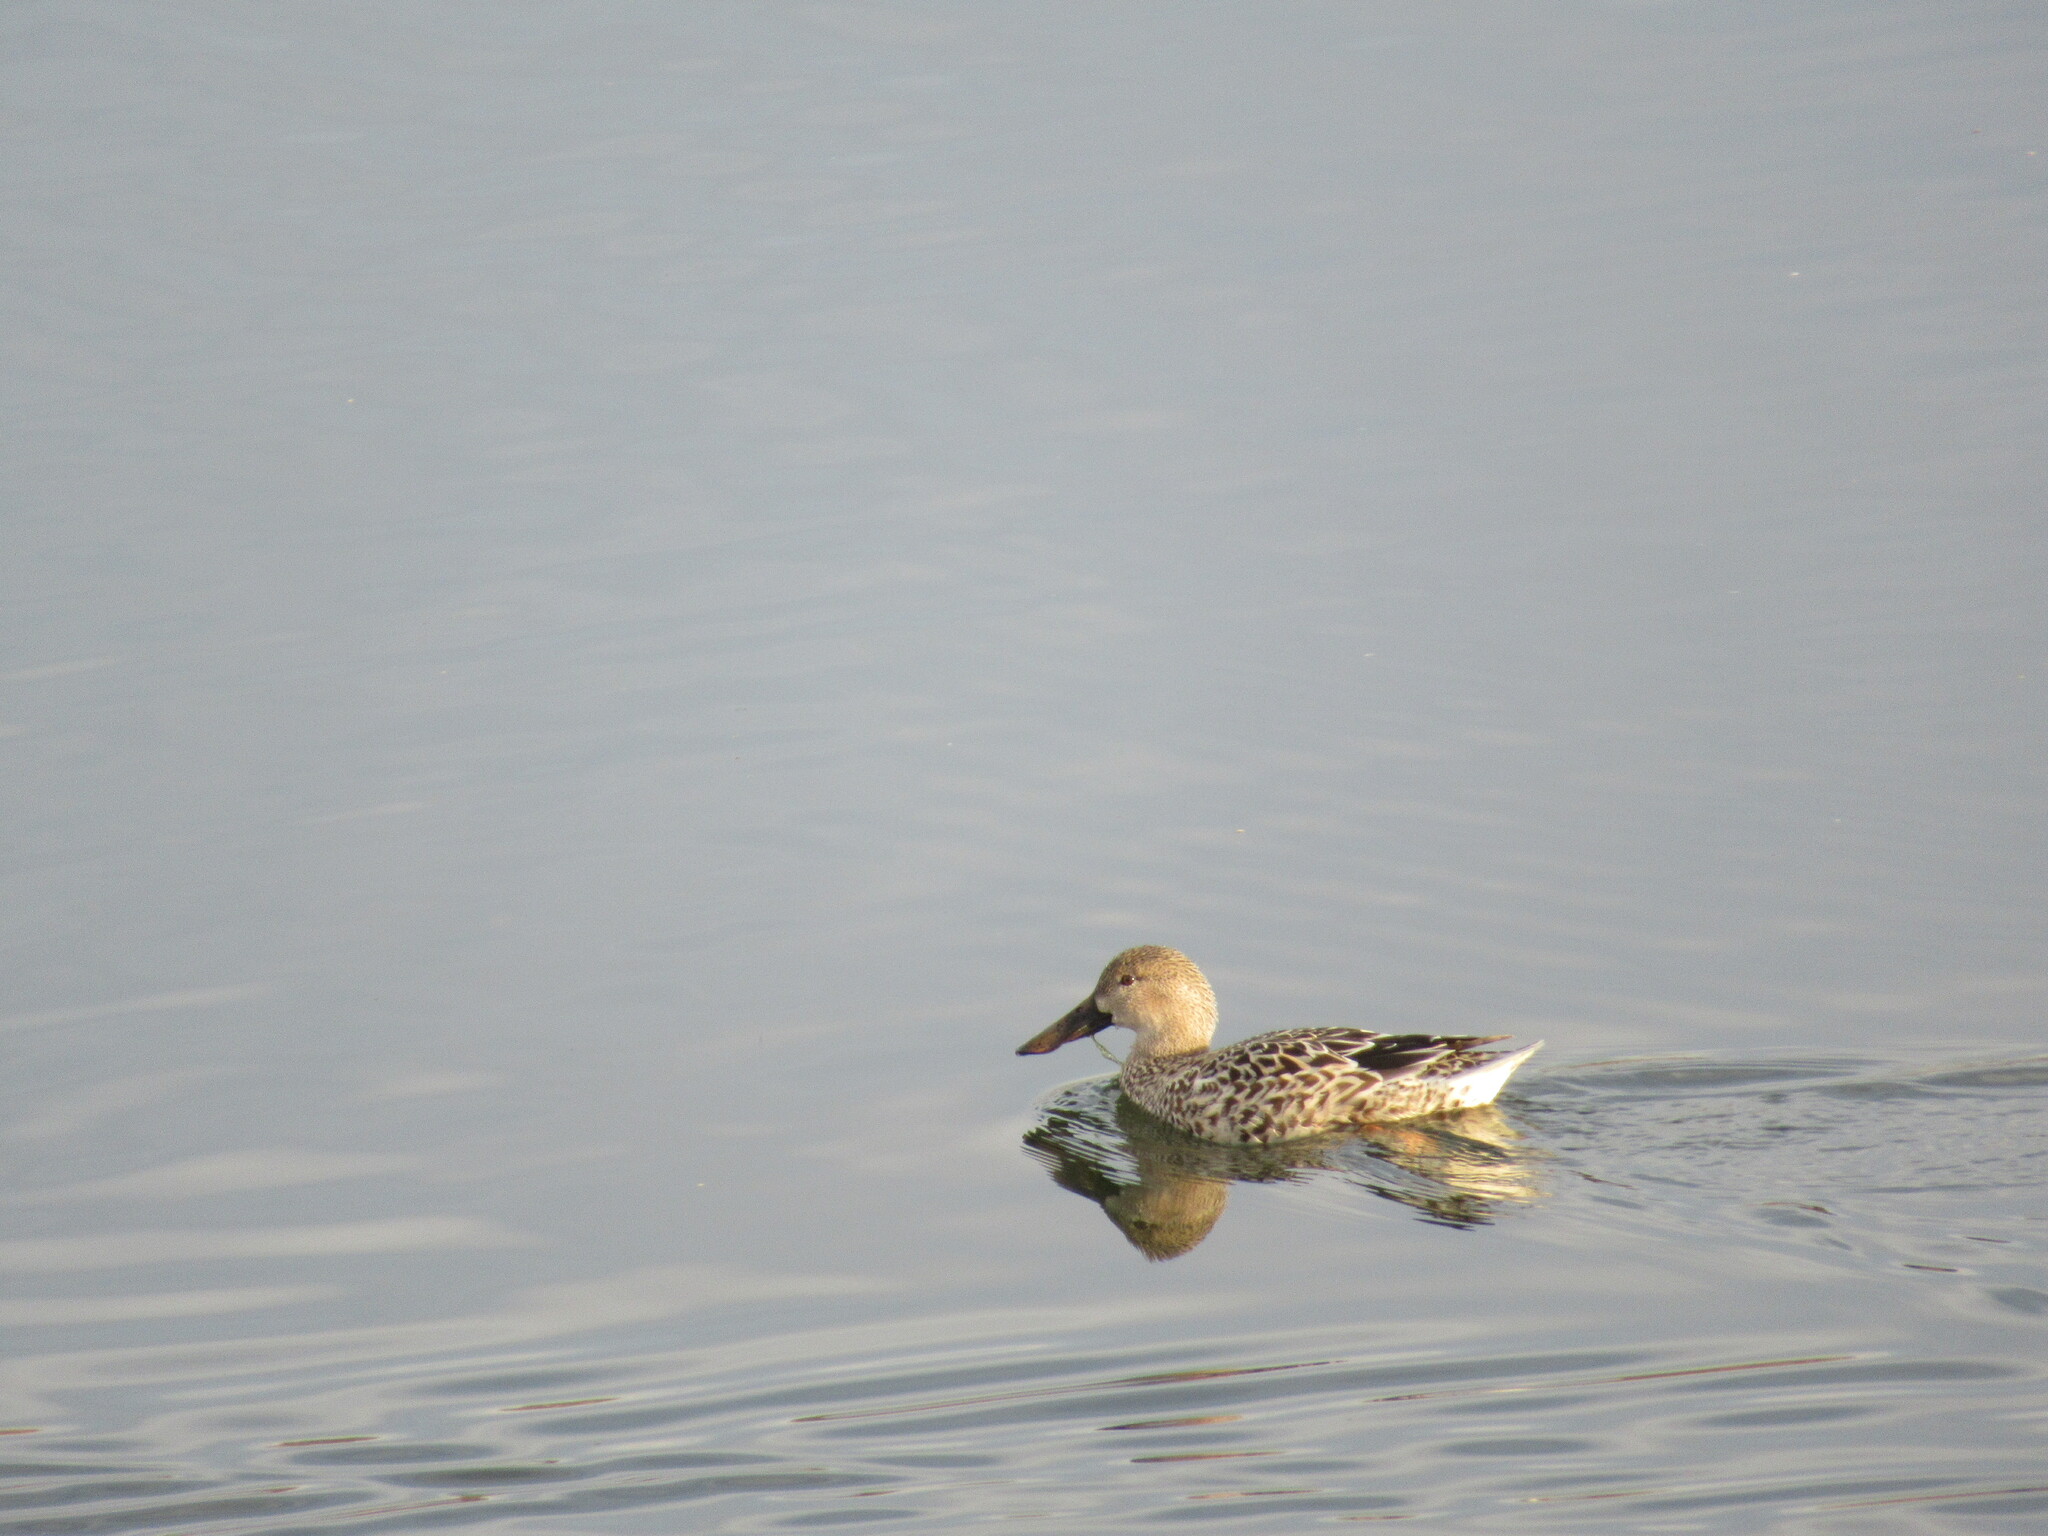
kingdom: Animalia
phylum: Chordata
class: Aves
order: Anseriformes
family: Anatidae
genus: Spatula
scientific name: Spatula clypeata
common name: Northern shoveler
